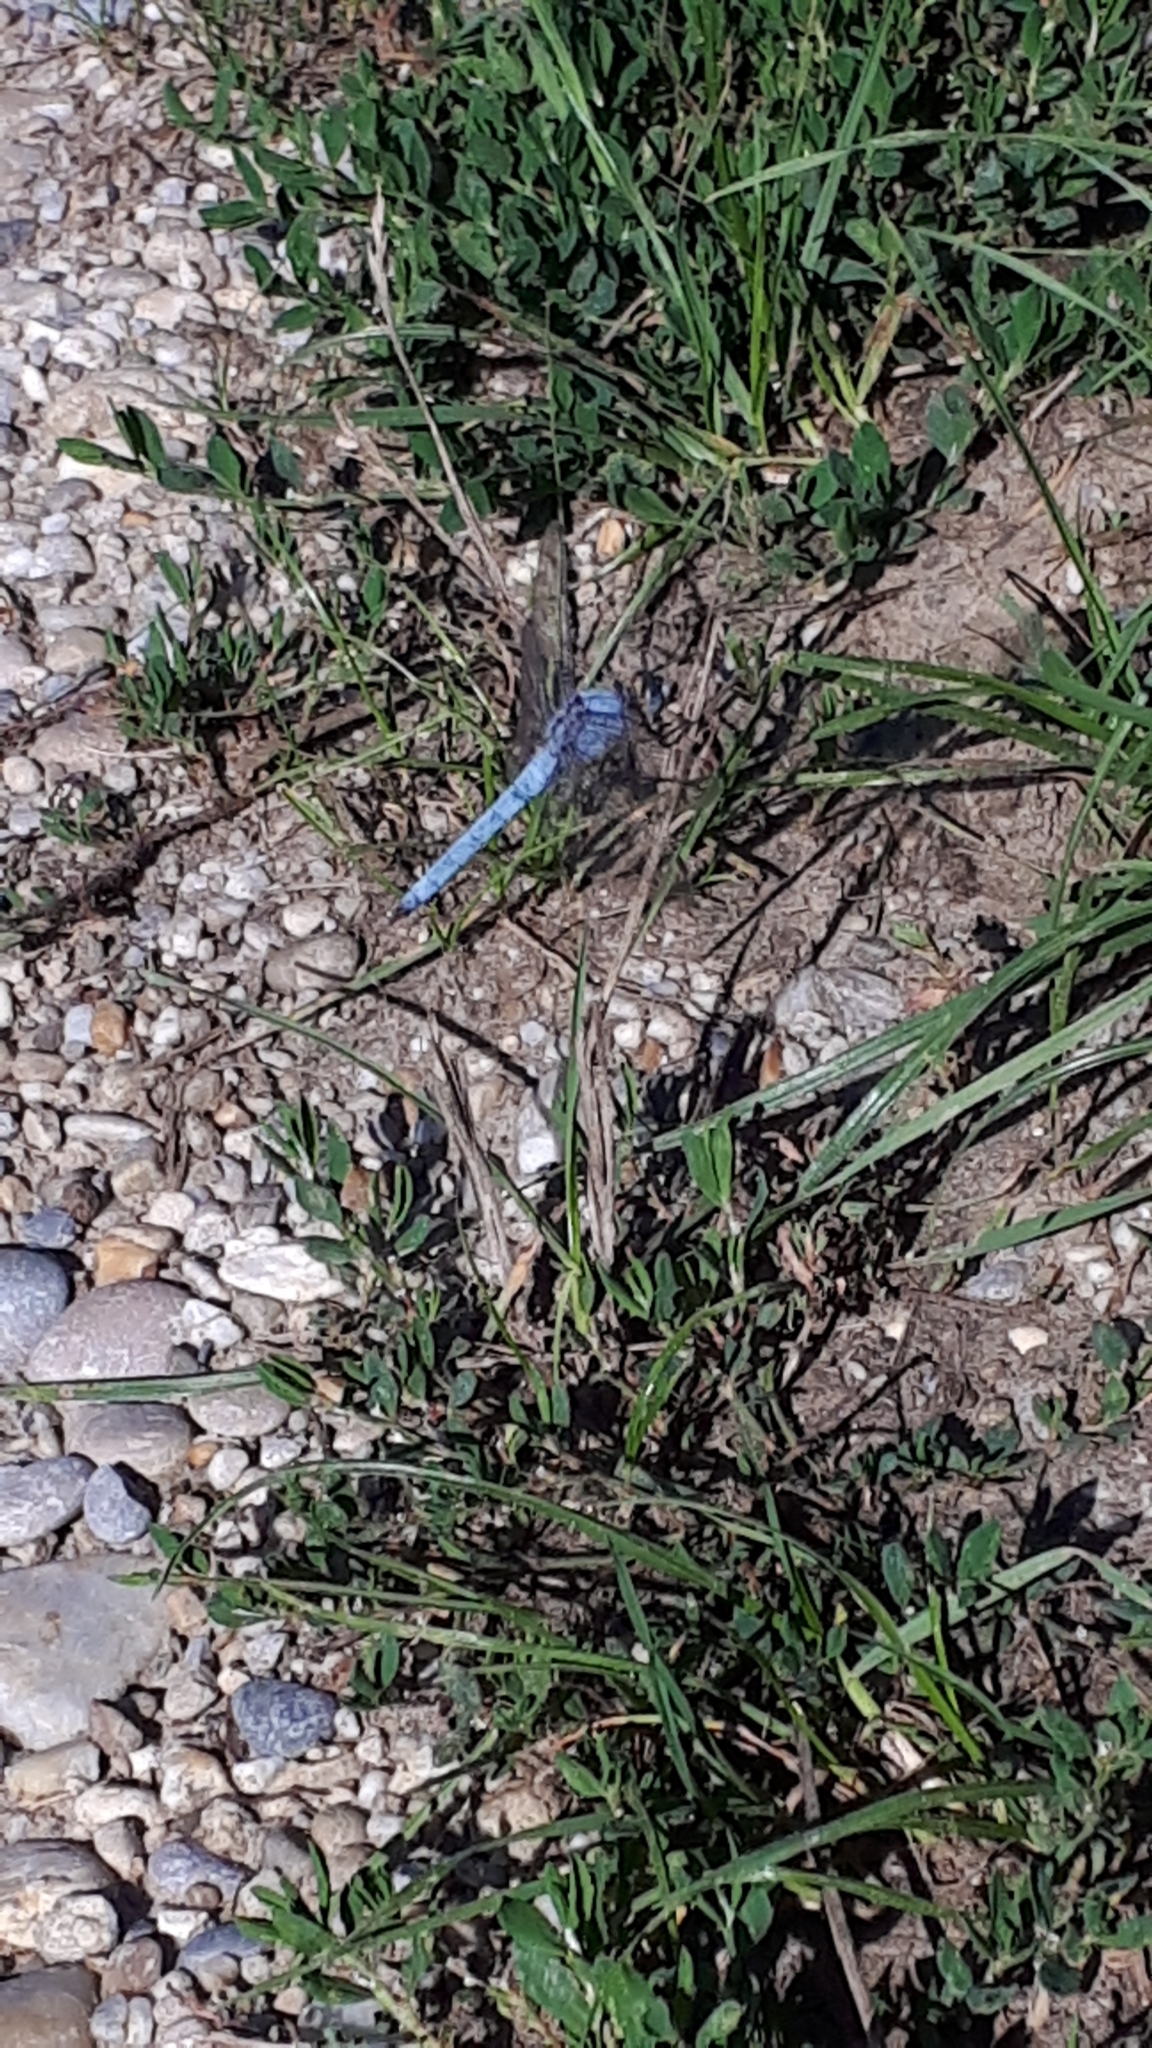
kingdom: Animalia
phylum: Arthropoda
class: Insecta
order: Odonata
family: Libellulidae
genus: Orthetrum
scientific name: Orthetrum brunneum
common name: Southern skimmer
